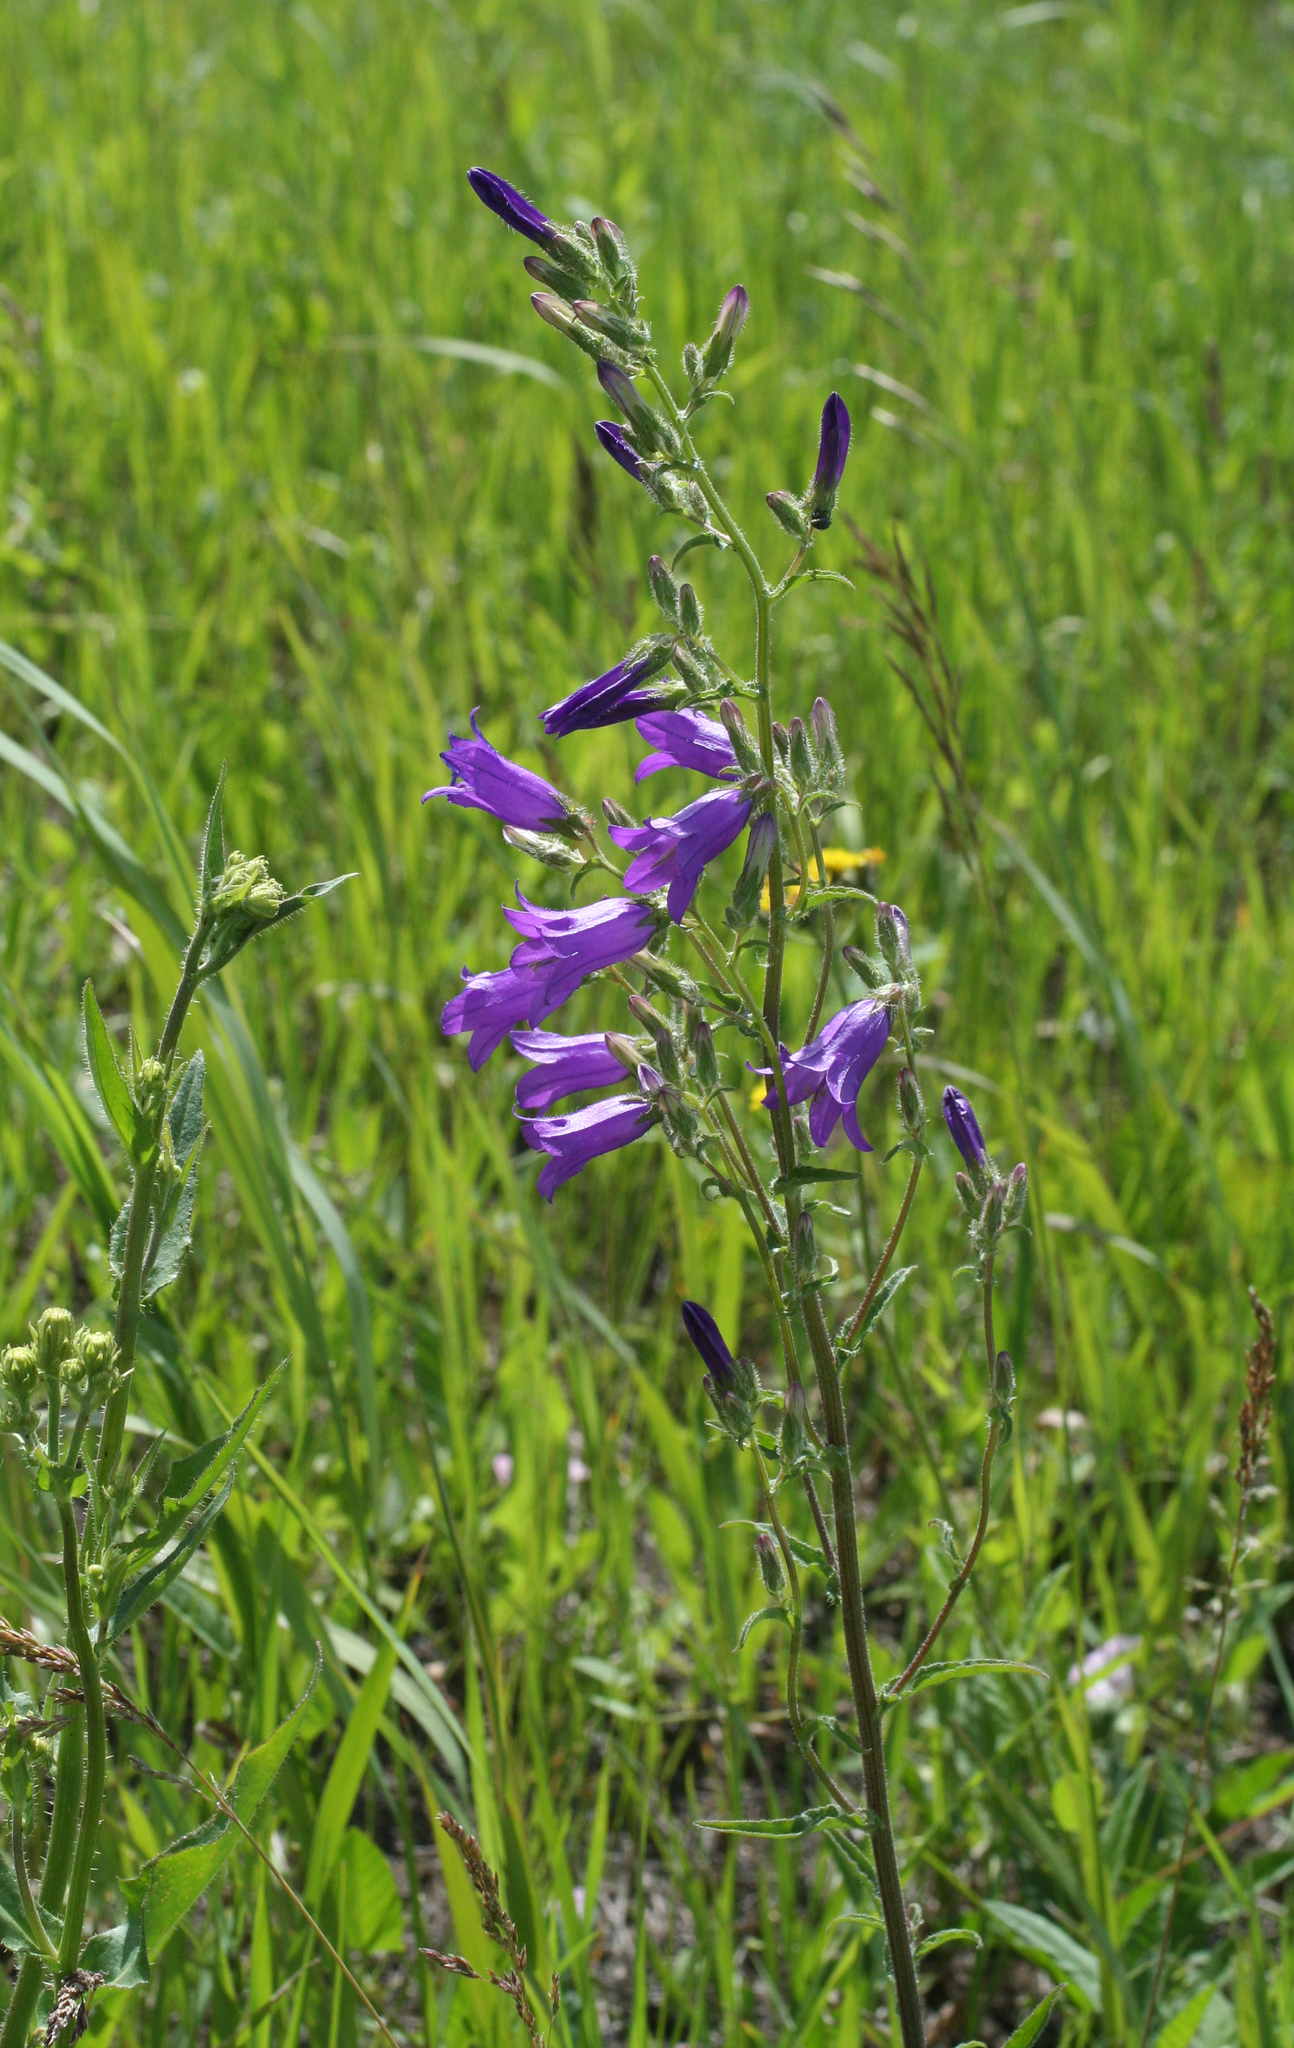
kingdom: Plantae
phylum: Tracheophyta
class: Magnoliopsida
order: Asterales
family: Campanulaceae
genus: Campanula
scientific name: Campanula sibirica
